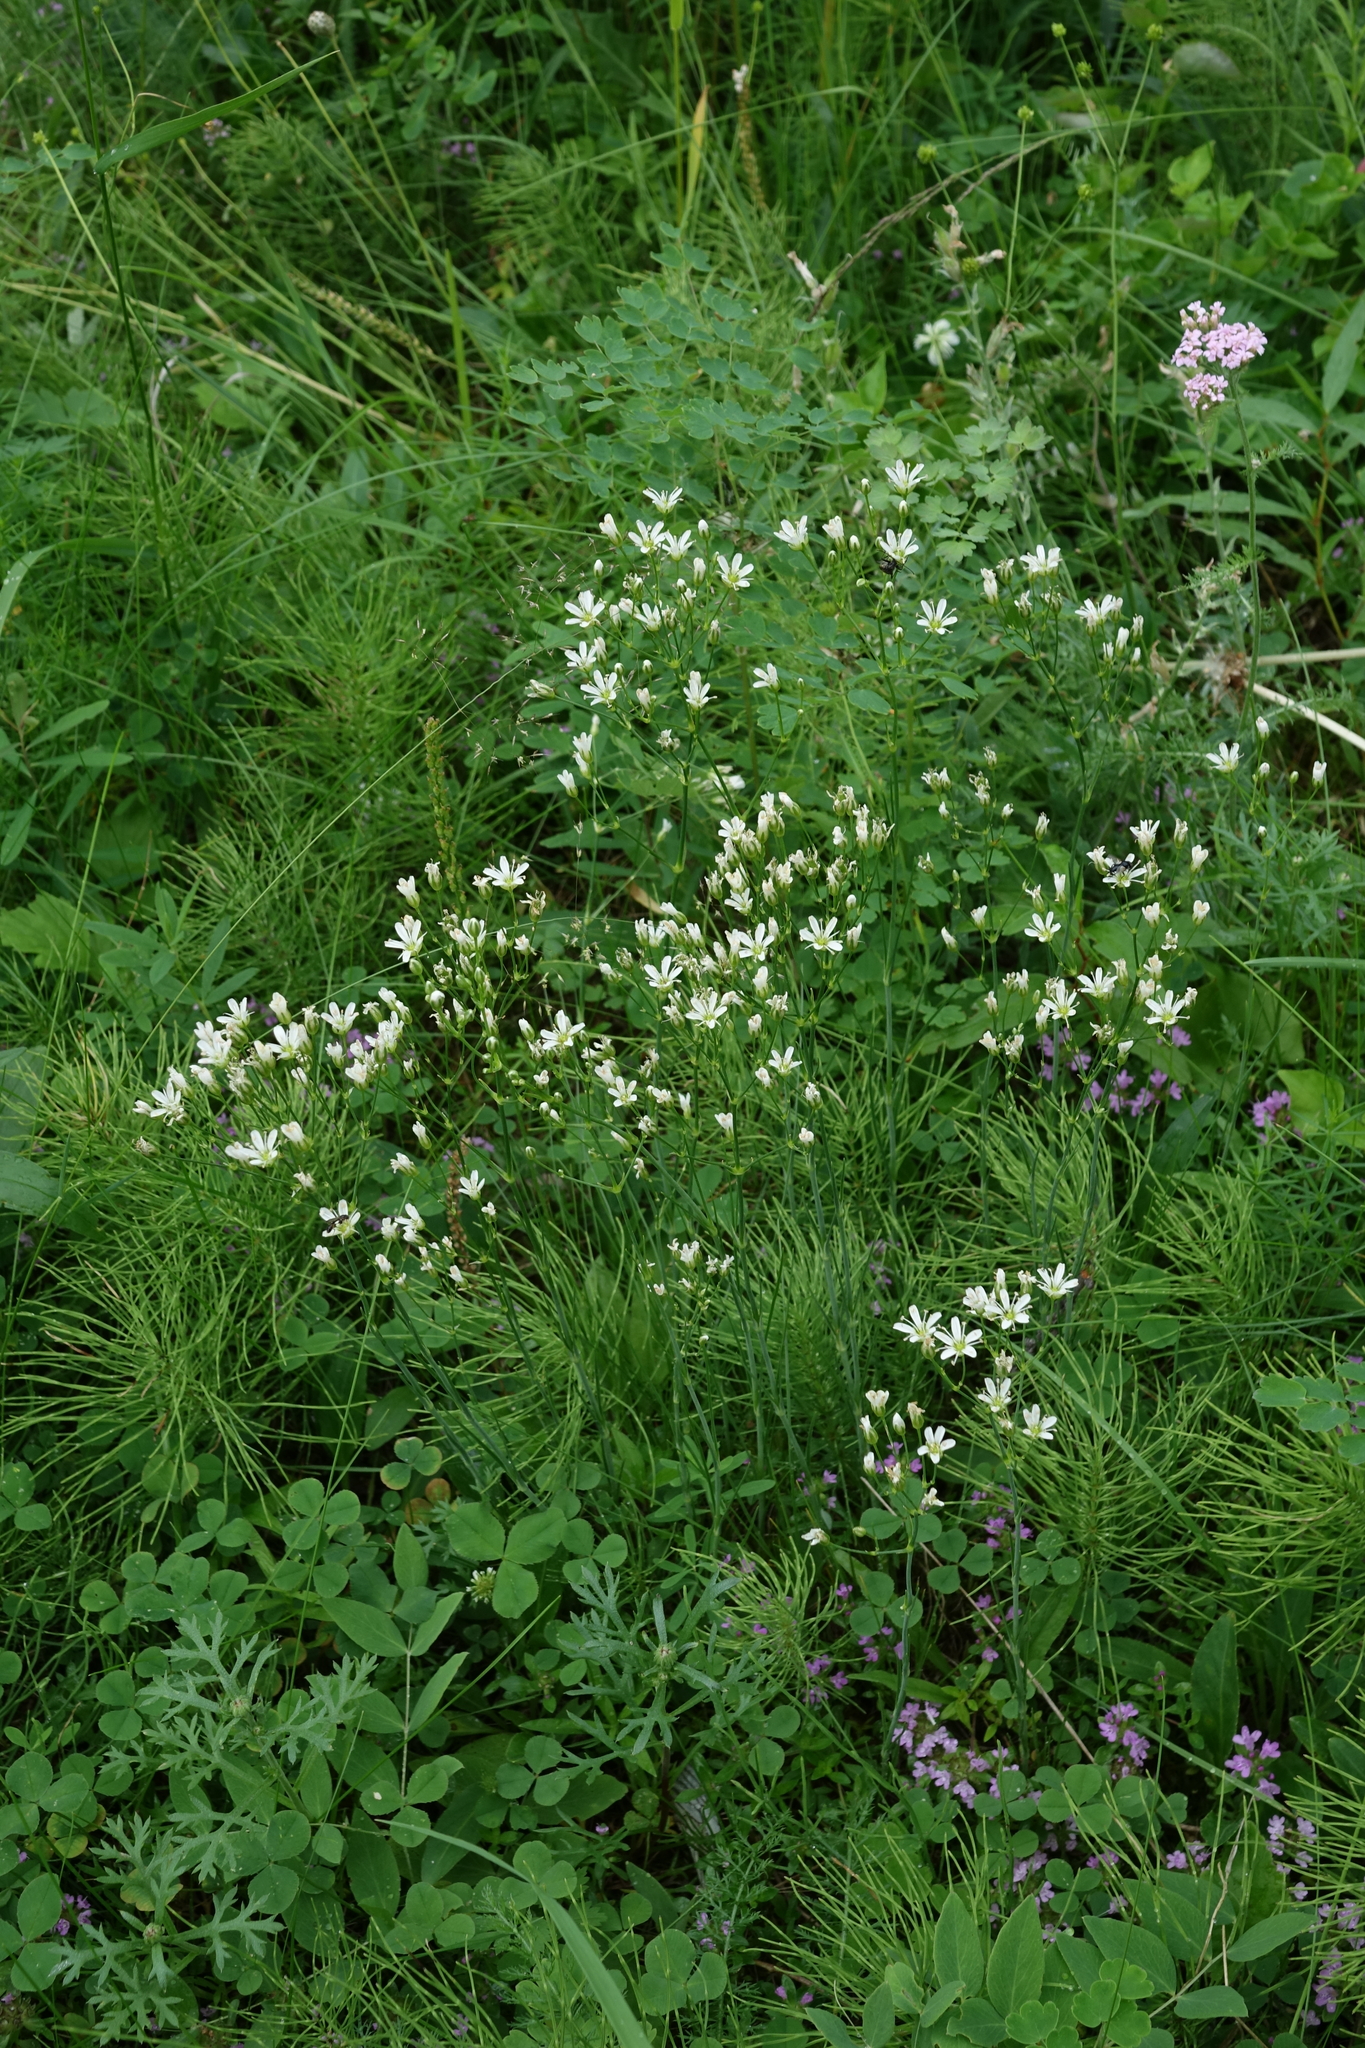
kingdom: Plantae
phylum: Tracheophyta
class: Magnoliopsida
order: Caryophyllales
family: Caryophyllaceae
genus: Eremogone
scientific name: Eremogone saxatilis
